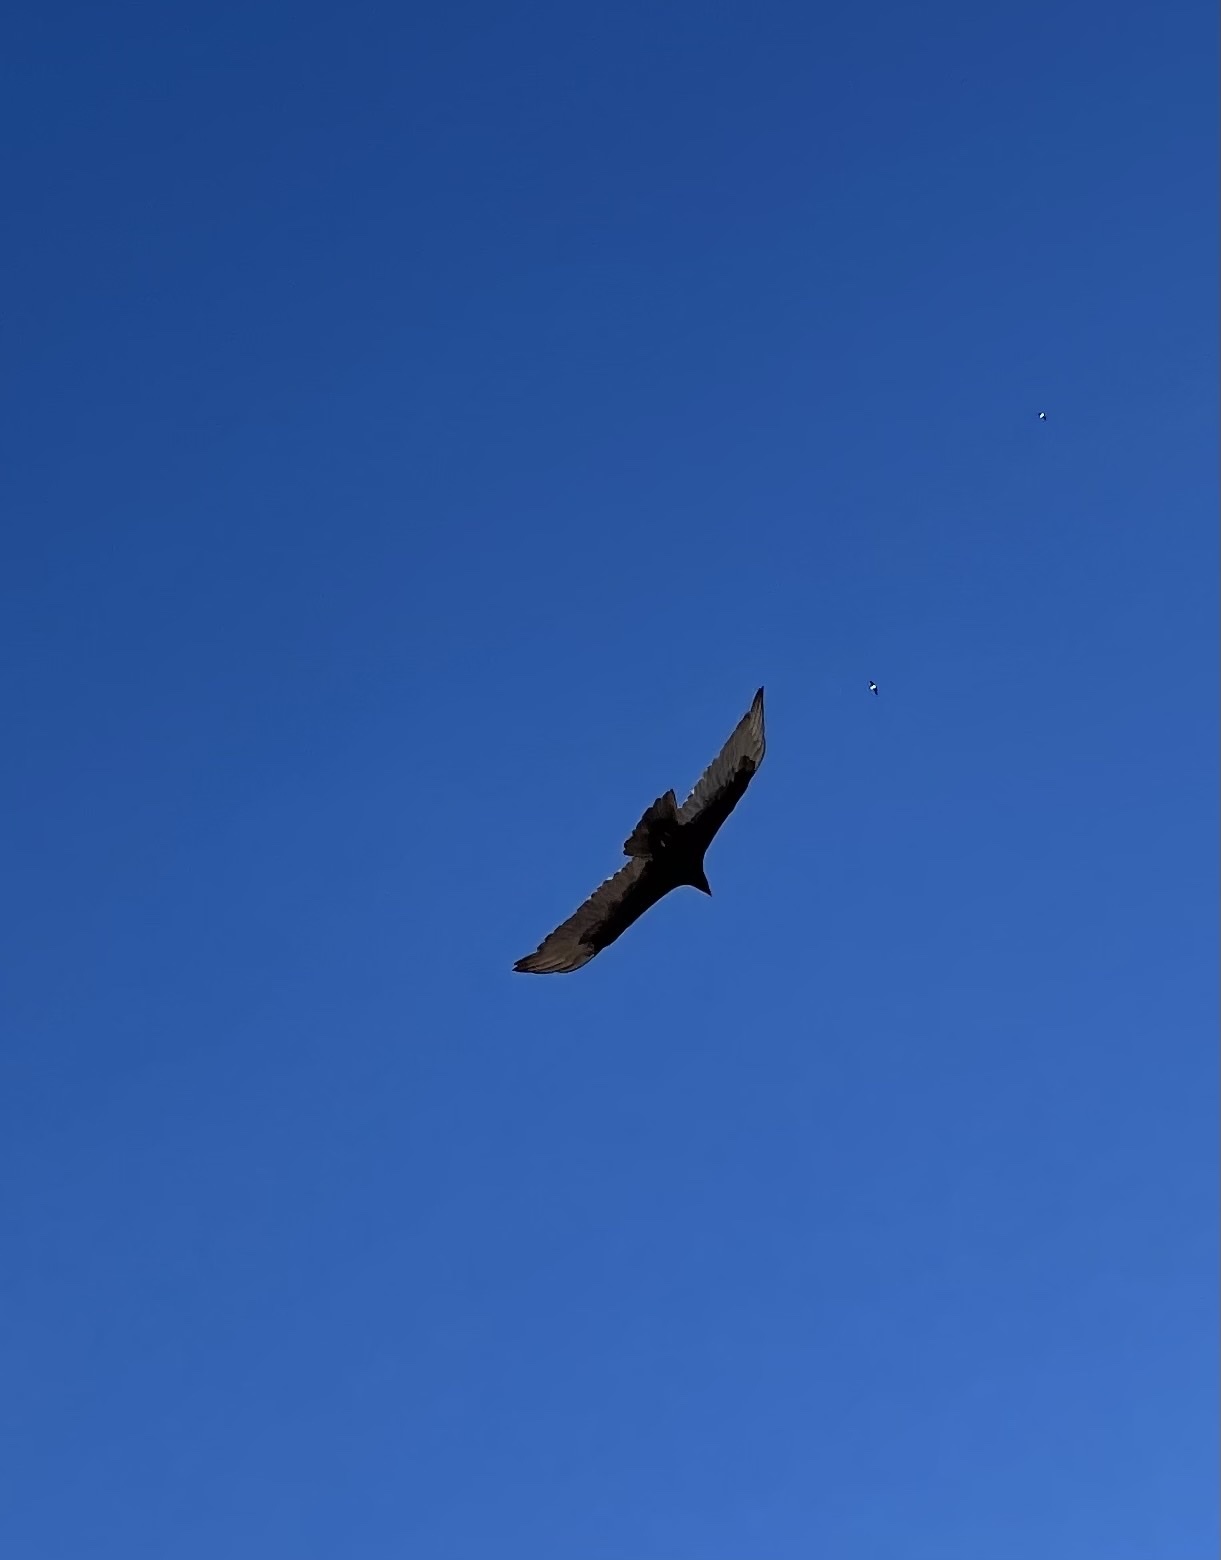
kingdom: Animalia
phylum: Chordata
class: Aves
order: Accipitriformes
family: Cathartidae
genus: Cathartes
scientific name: Cathartes aura
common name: Turkey vulture
